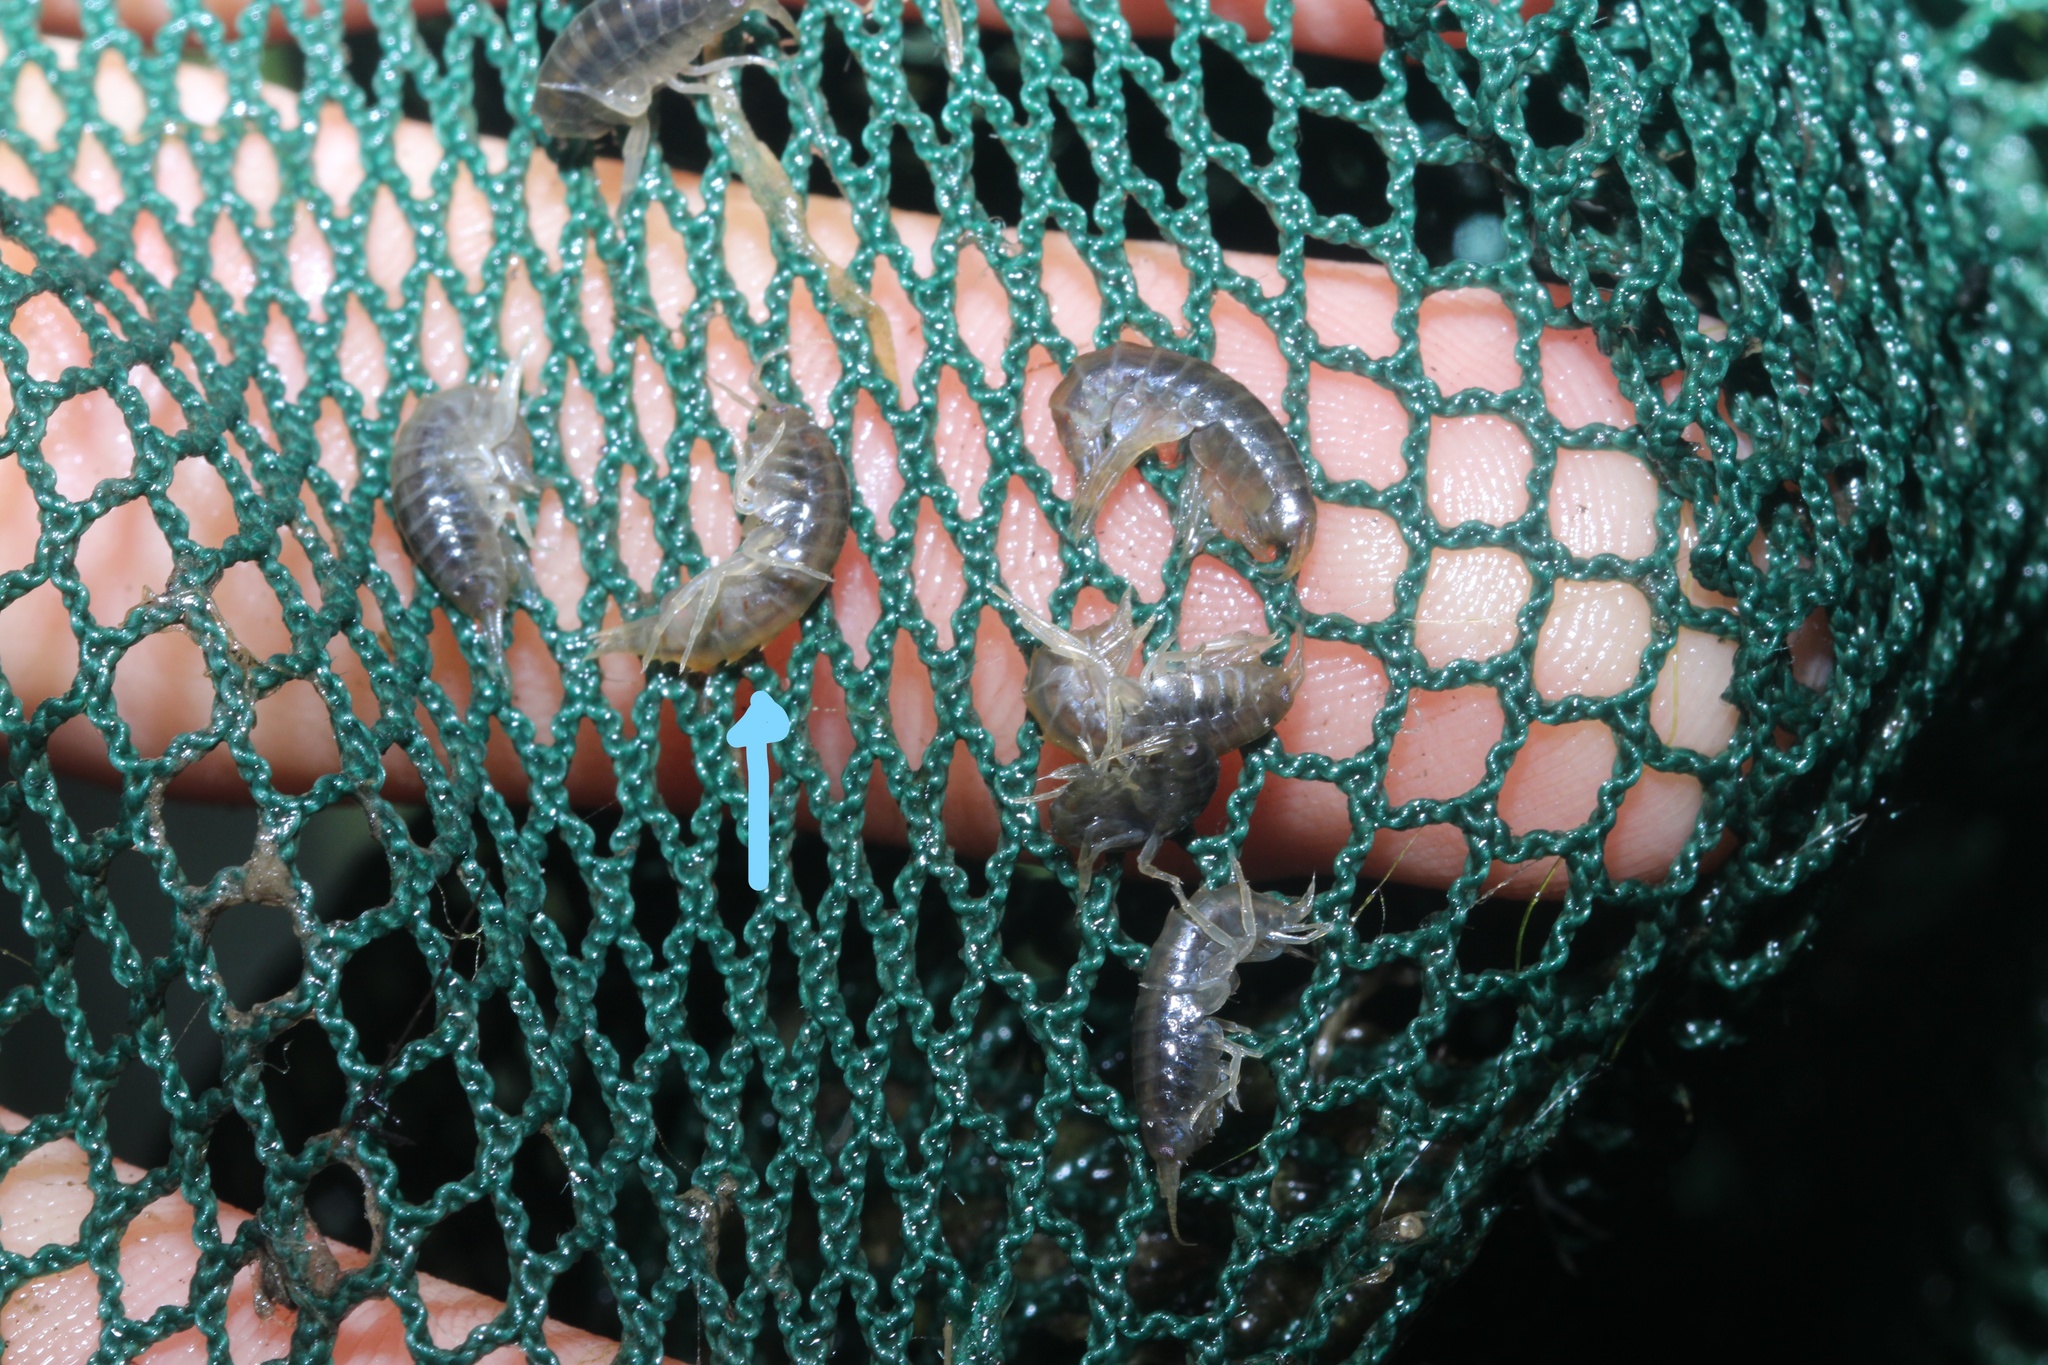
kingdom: Animalia
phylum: Arthropoda
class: Malacostraca
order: Amphipoda
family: Gammaridae
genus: Gammarus
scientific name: Gammarus roeselii
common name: Lacustrine amphipod
